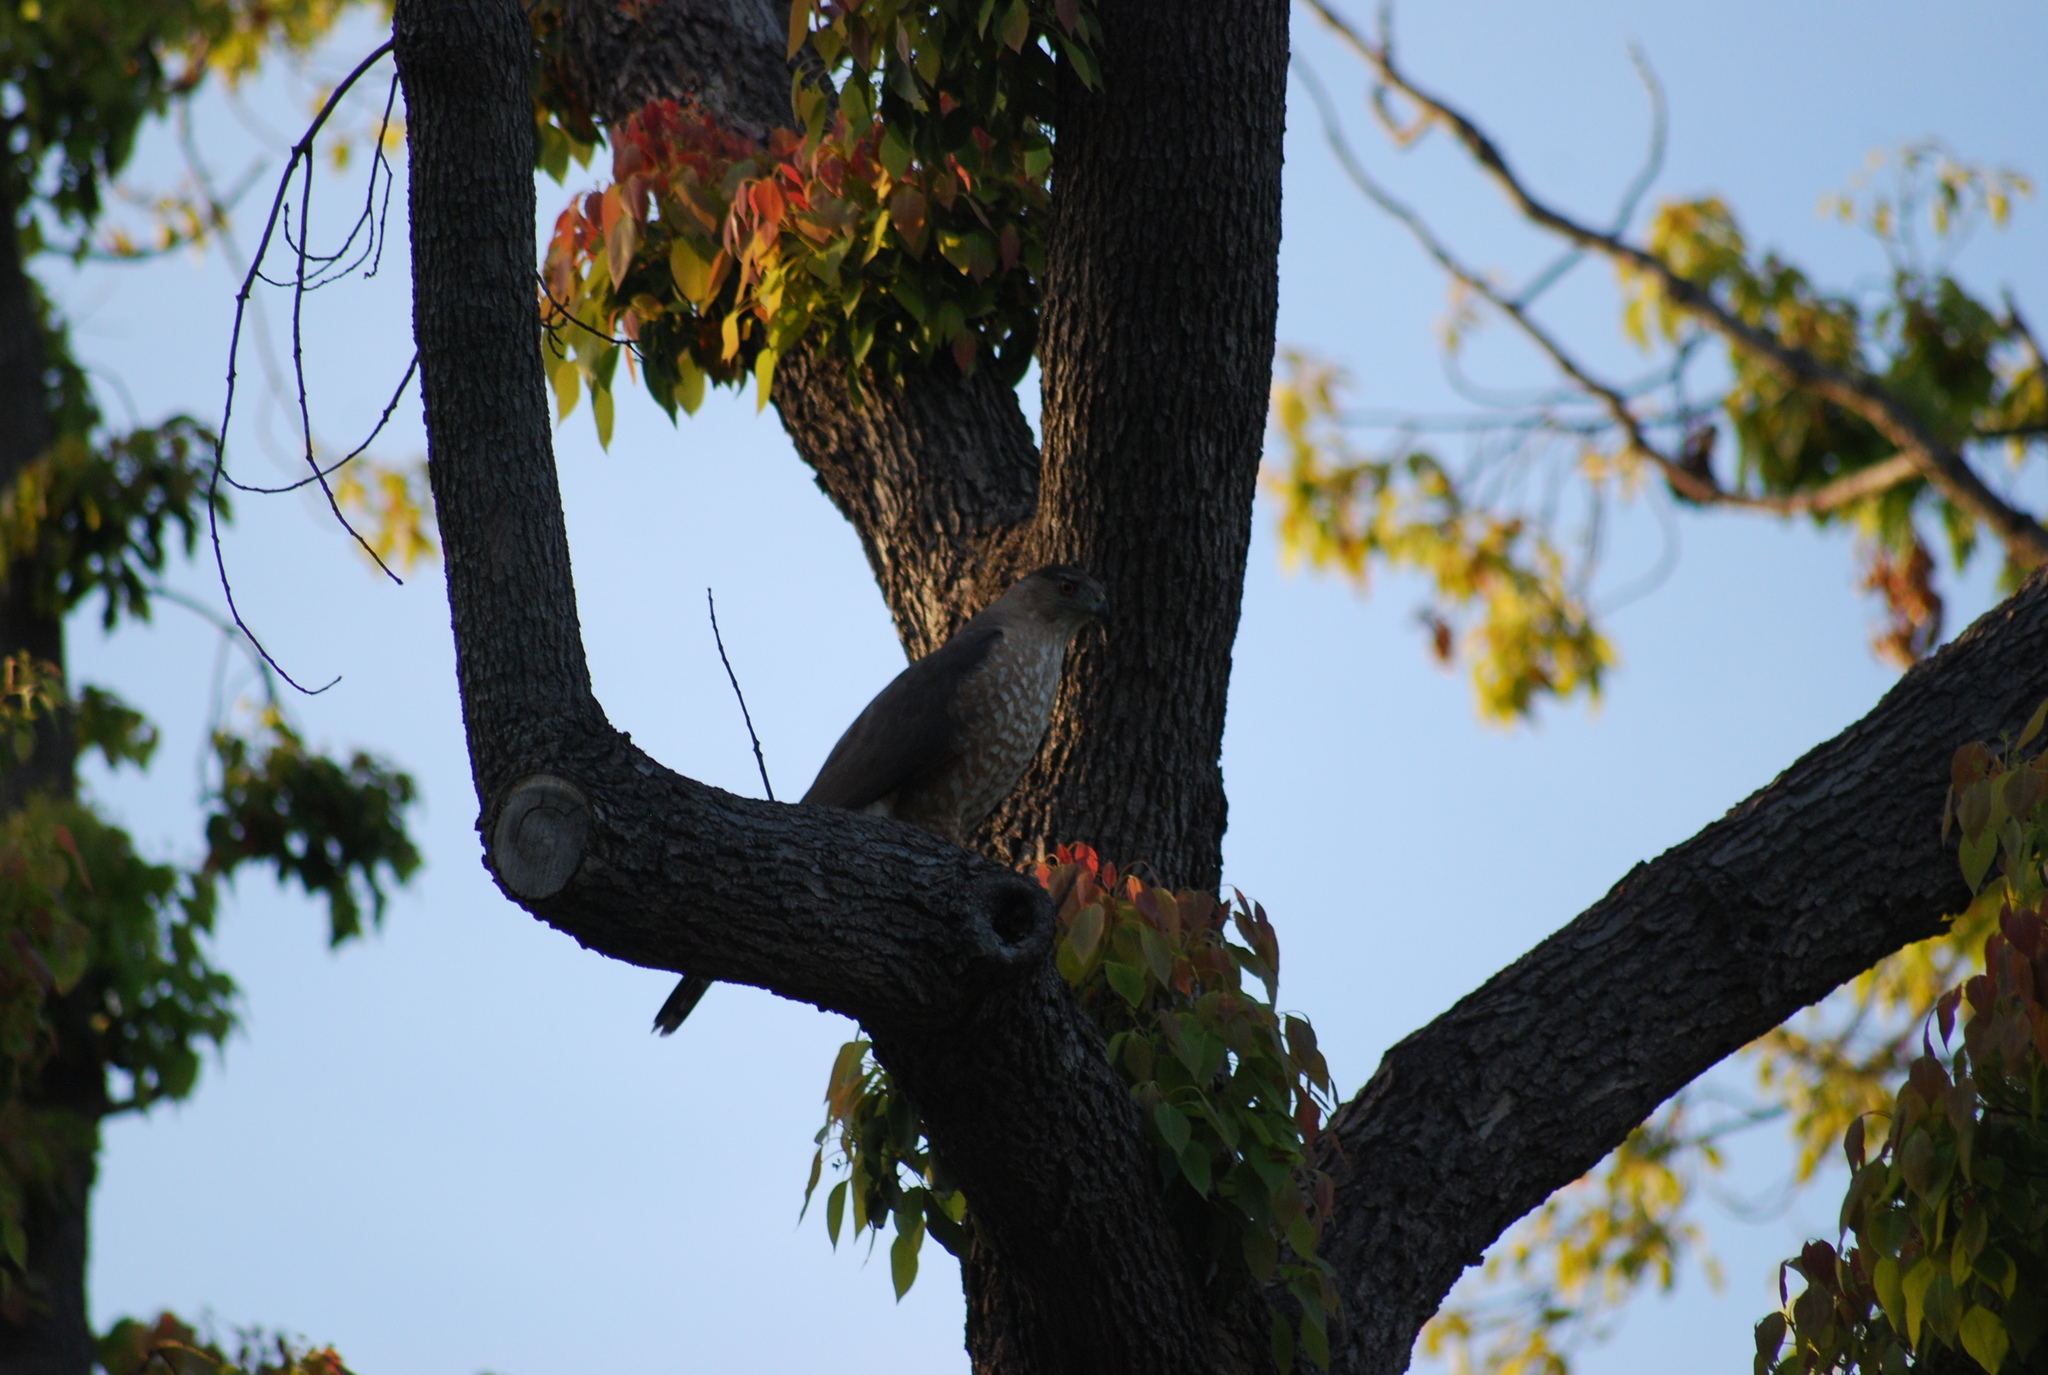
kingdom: Animalia
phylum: Chordata
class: Aves
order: Accipitriformes
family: Accipitridae
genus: Accipiter
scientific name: Accipiter cooperii
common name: Cooper's hawk
